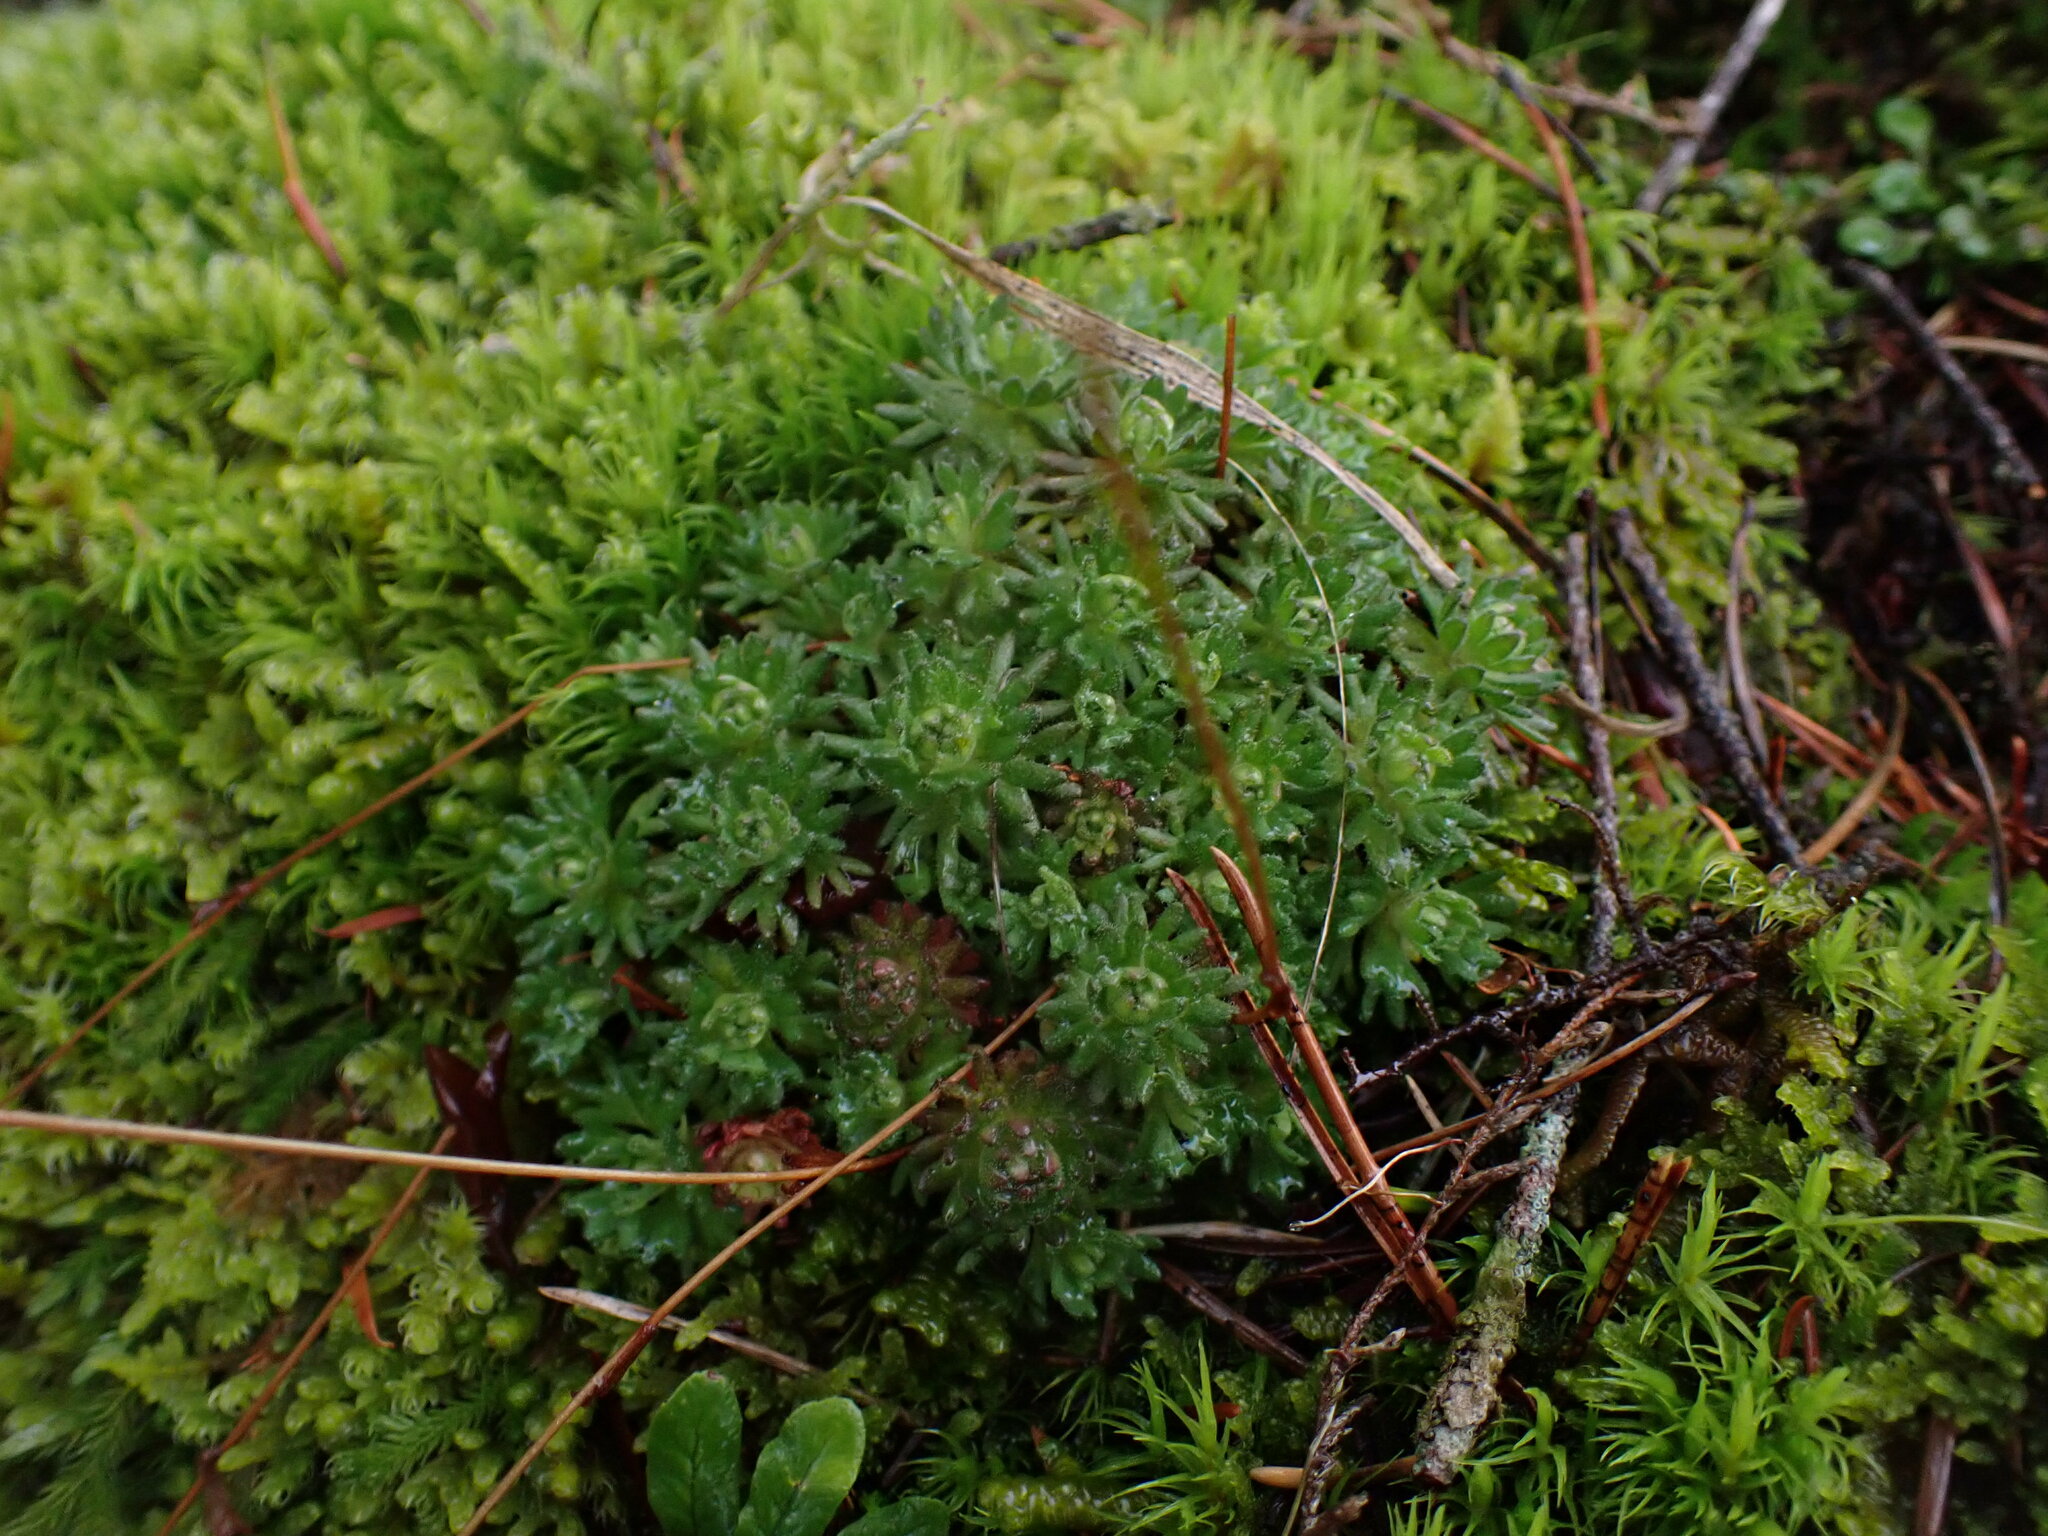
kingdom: Plantae
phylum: Tracheophyta
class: Magnoliopsida
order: Saxifragales
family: Saxifragaceae
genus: Saxifraga
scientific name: Saxifraga cespitosa
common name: Tufted saxifrage
